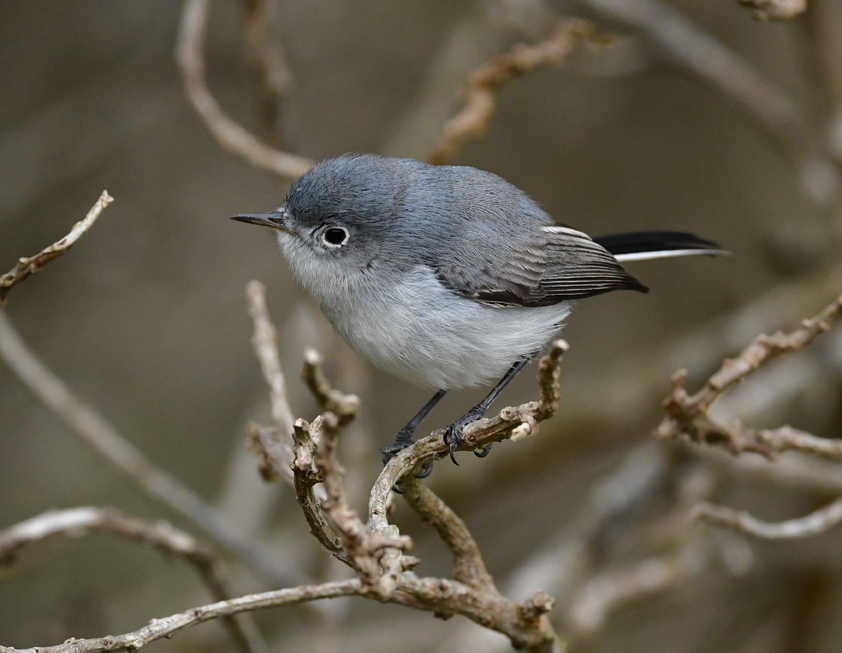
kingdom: Animalia
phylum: Chordata
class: Aves
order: Passeriformes
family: Polioptilidae
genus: Polioptila
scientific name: Polioptila caerulea
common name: Blue-gray gnatcatcher
